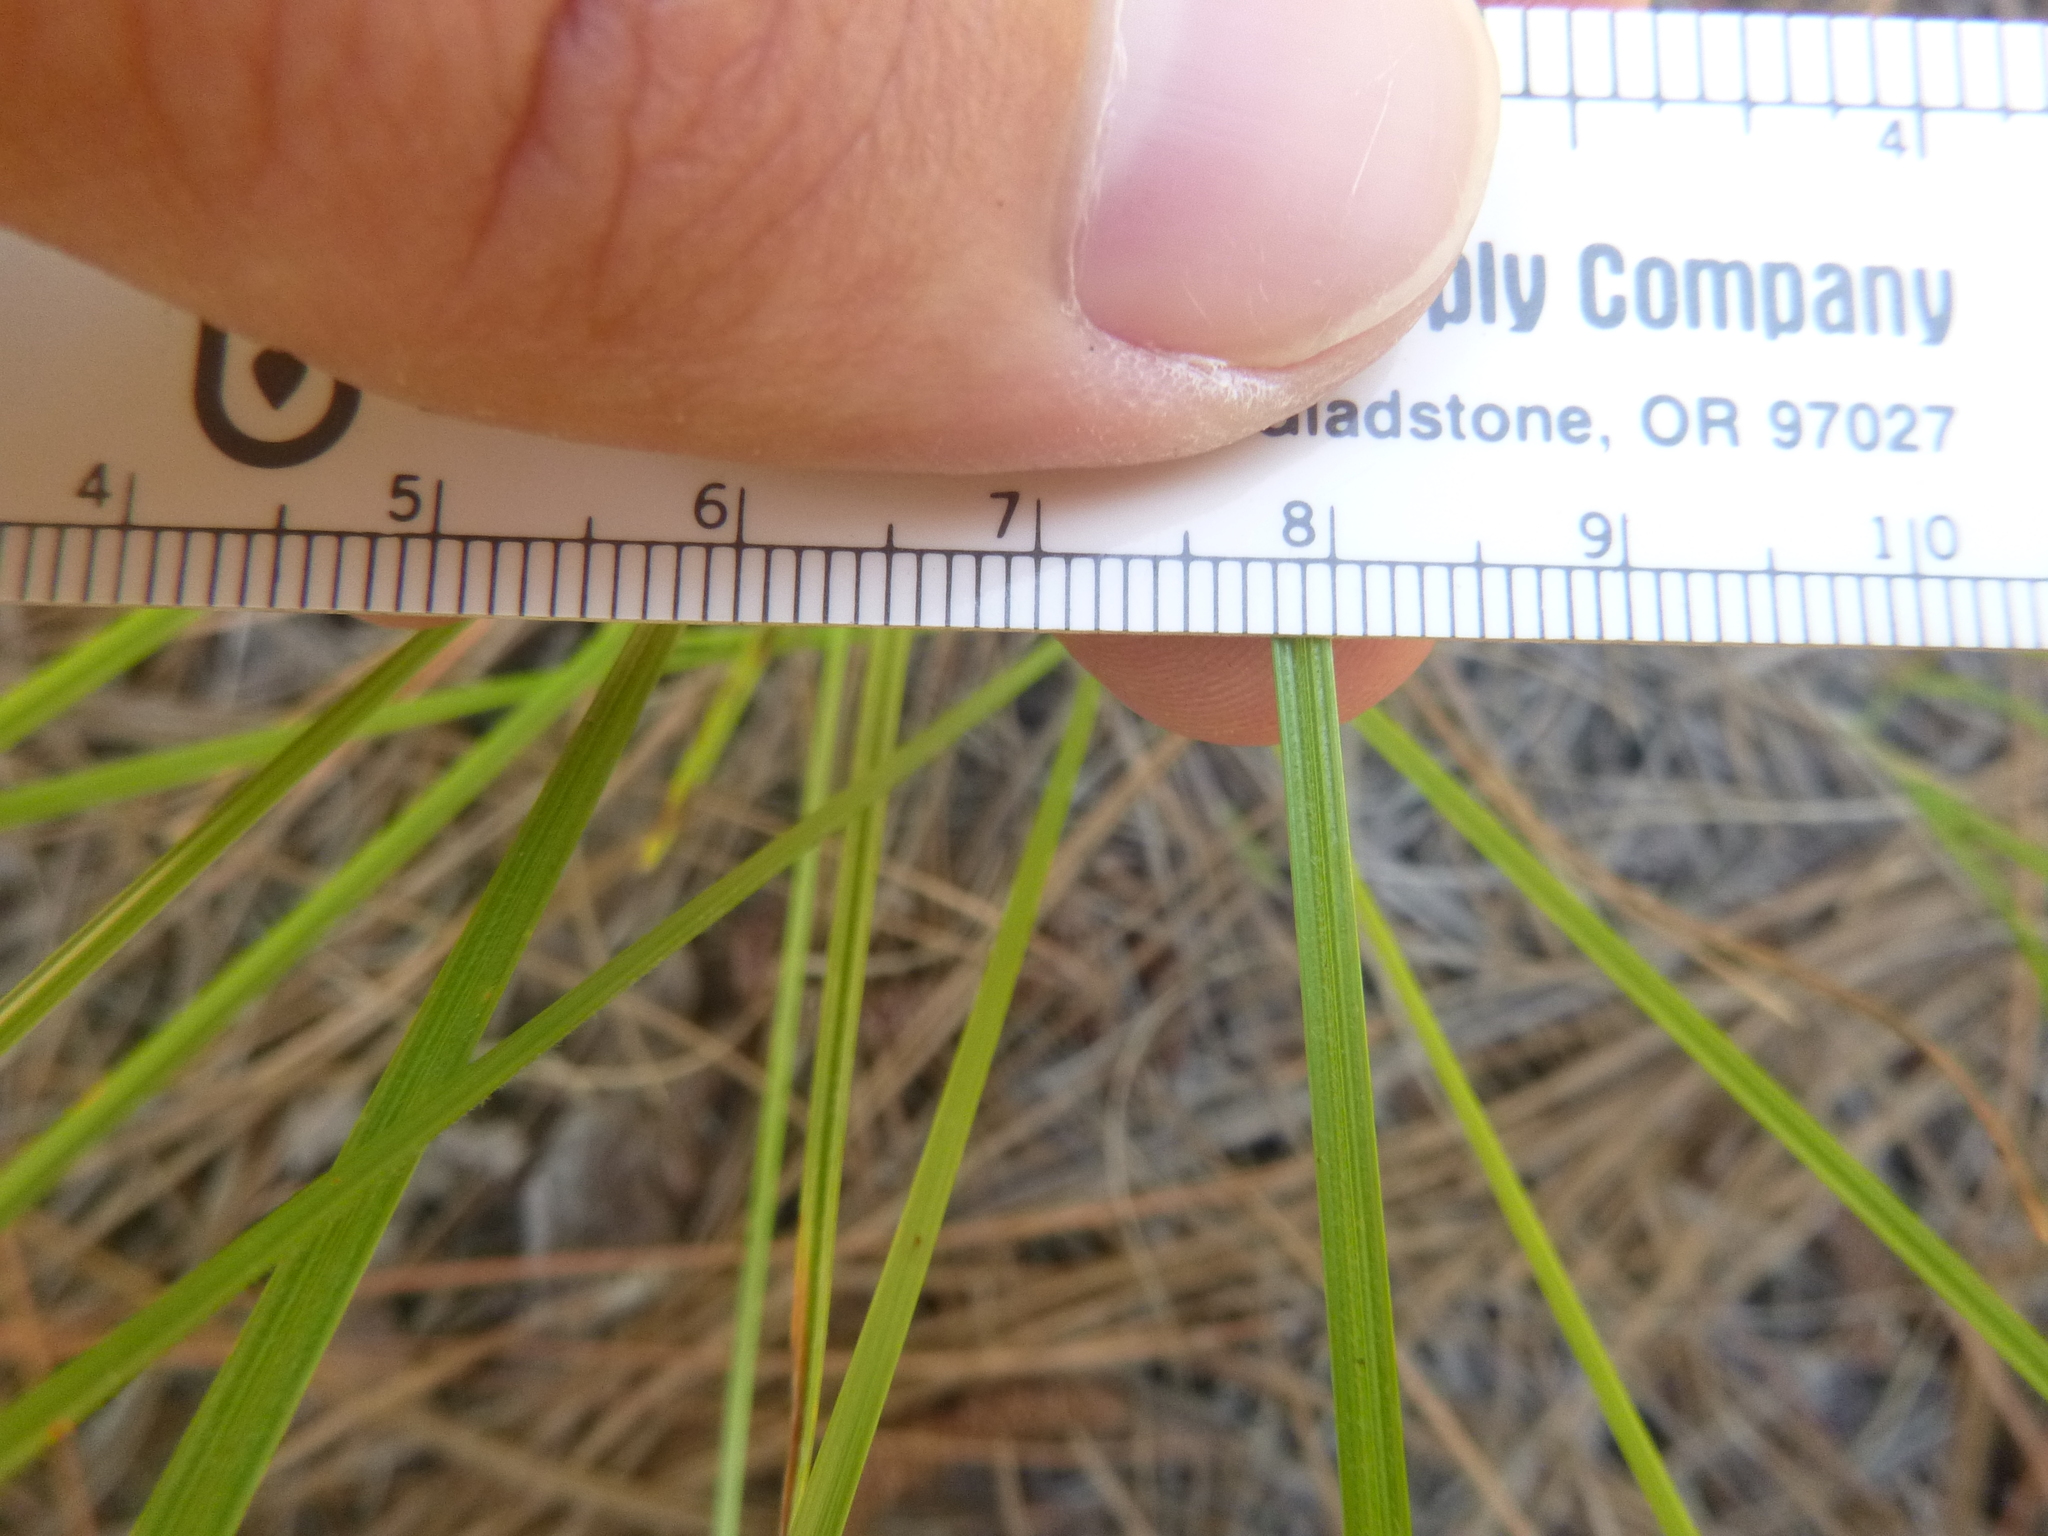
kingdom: Plantae
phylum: Tracheophyta
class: Liliopsida
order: Poales
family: Cyperaceae
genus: Scleria
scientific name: Scleria pauciflora
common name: Few-flowered nutrush
